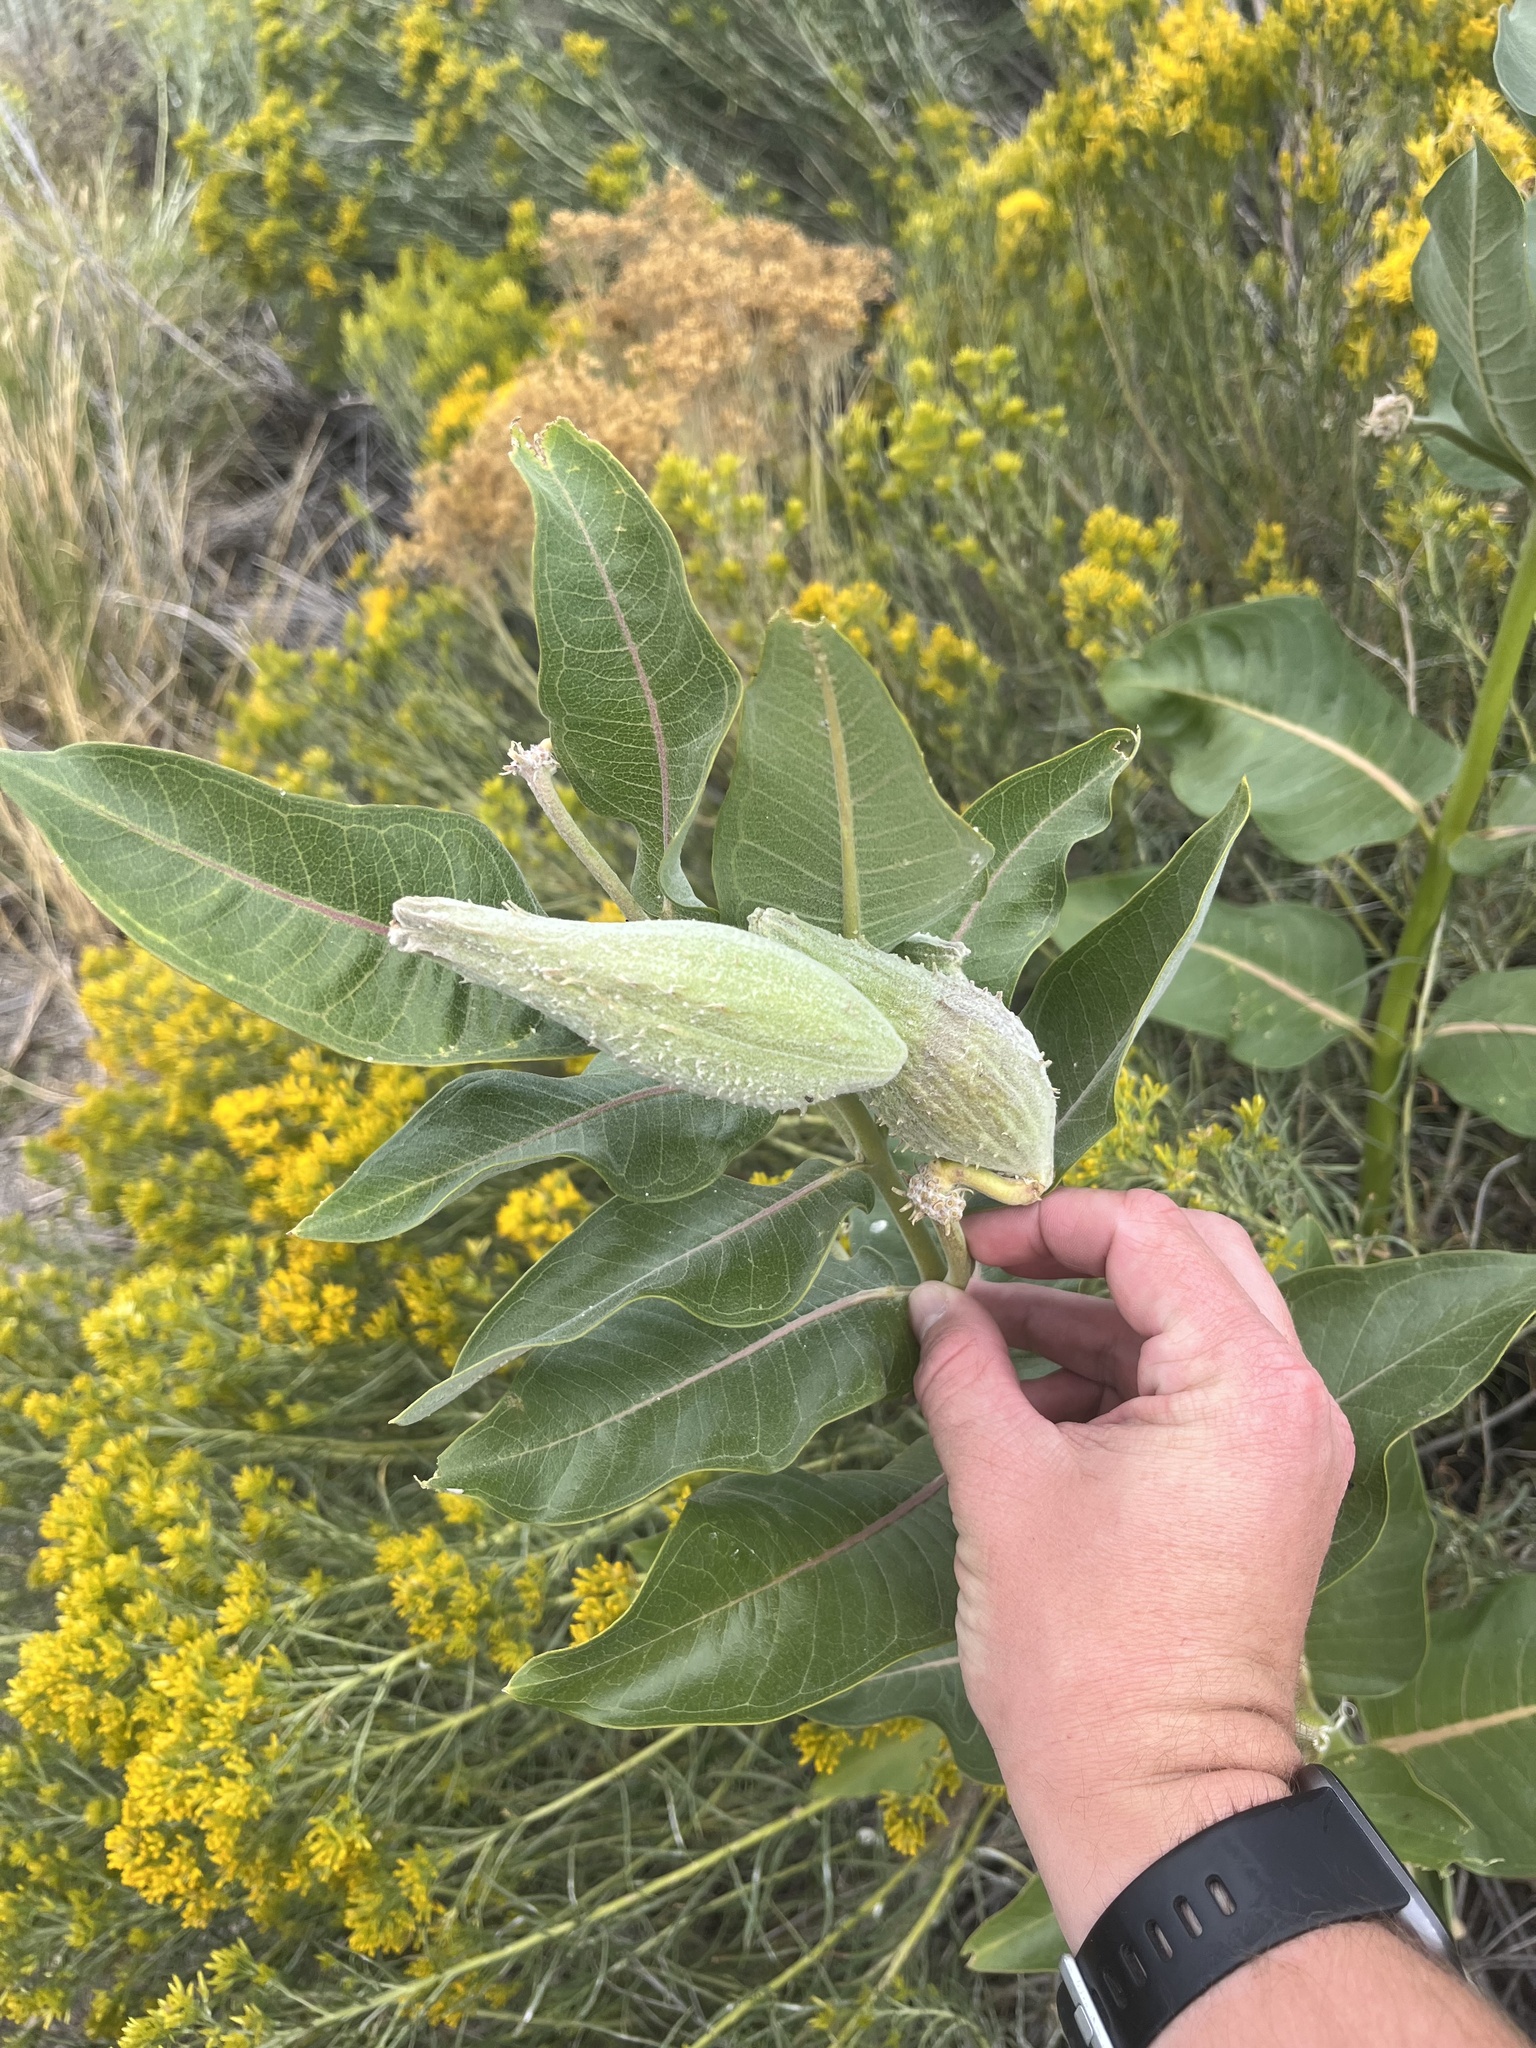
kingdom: Plantae
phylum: Tracheophyta
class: Magnoliopsida
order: Gentianales
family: Apocynaceae
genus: Asclepias
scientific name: Asclepias speciosa
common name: Showy milkweed
